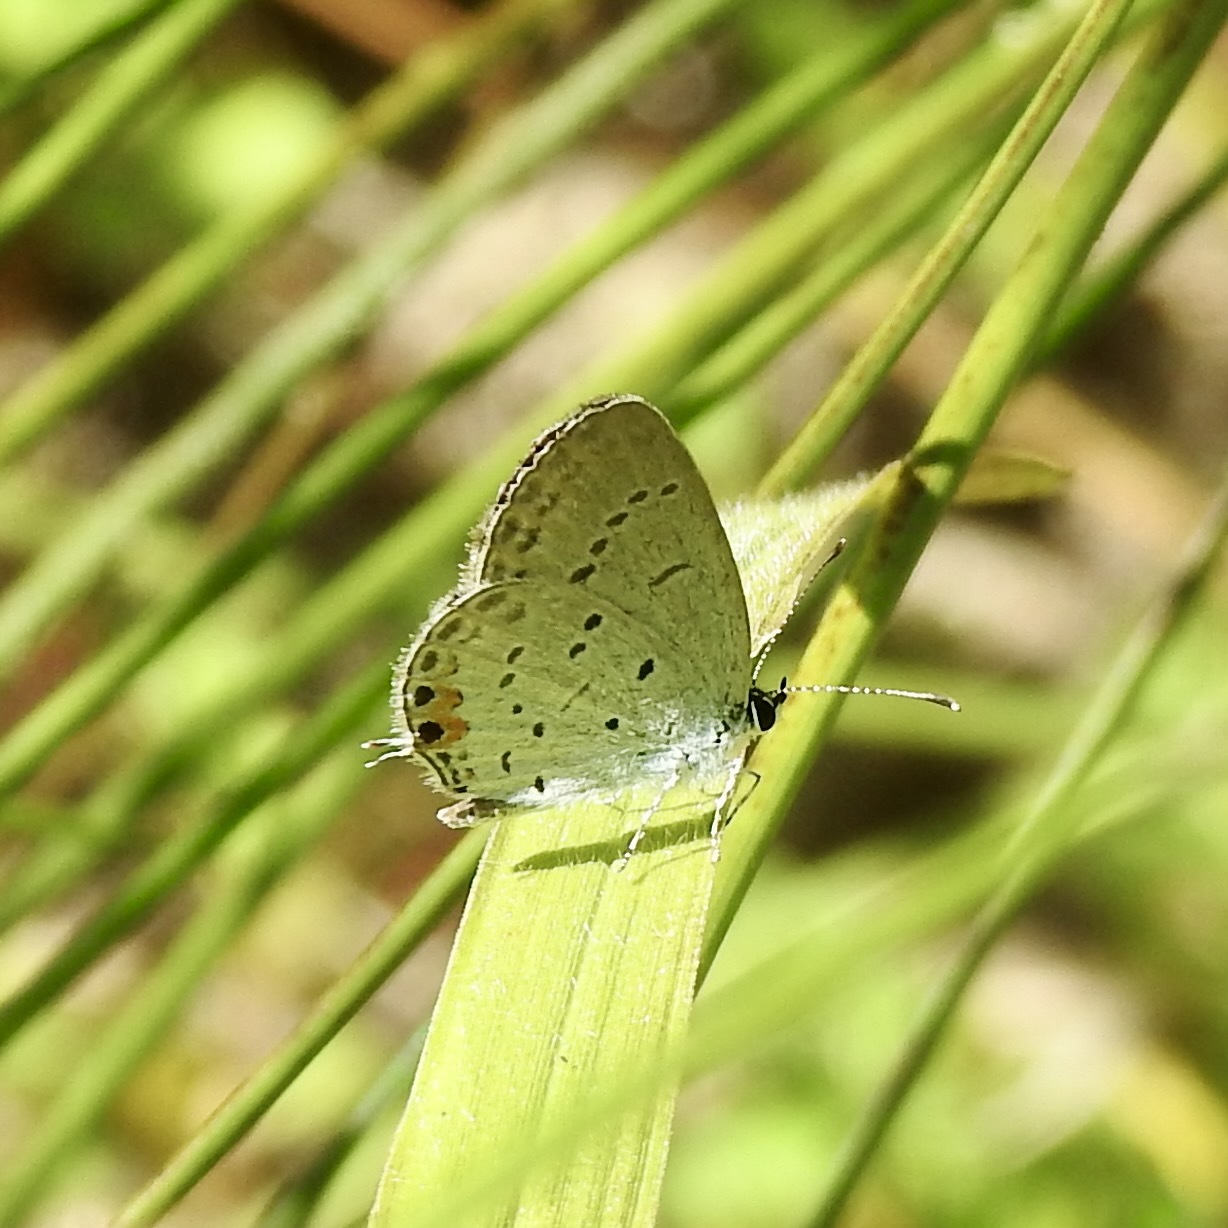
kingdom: Animalia
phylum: Arthropoda
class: Insecta
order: Lepidoptera
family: Lycaenidae
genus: Elkalyce
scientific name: Elkalyce comyntas
